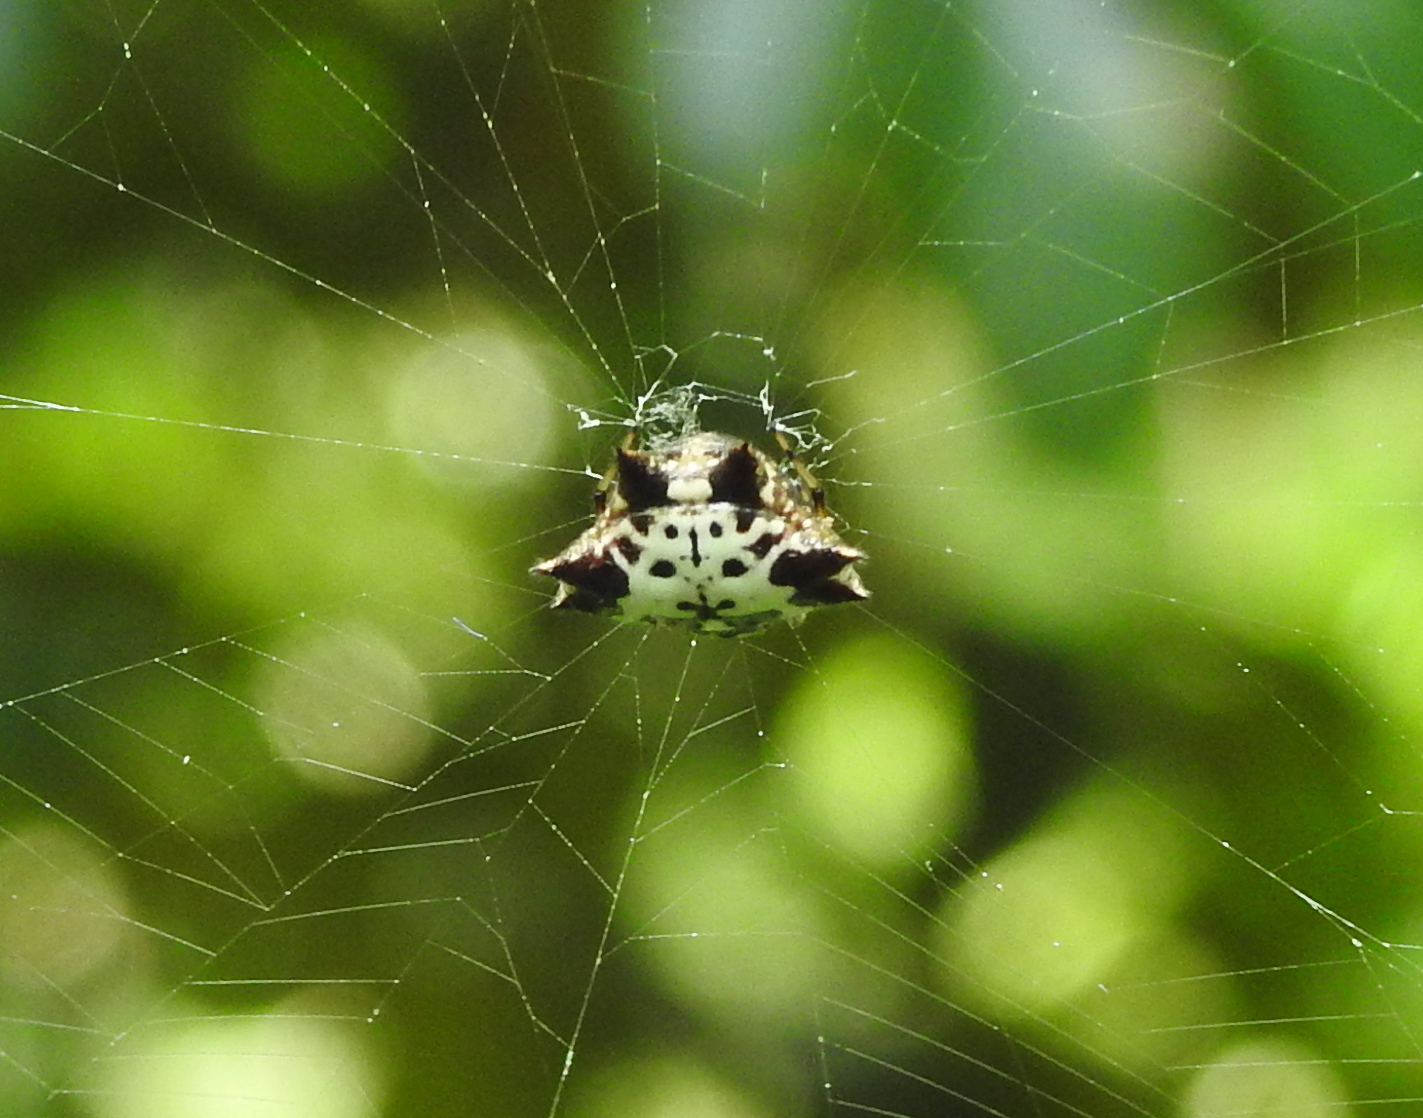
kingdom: Animalia
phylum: Arthropoda
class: Arachnida
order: Araneae
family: Araneidae
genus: Gasteracantha
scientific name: Gasteracantha kuhli
